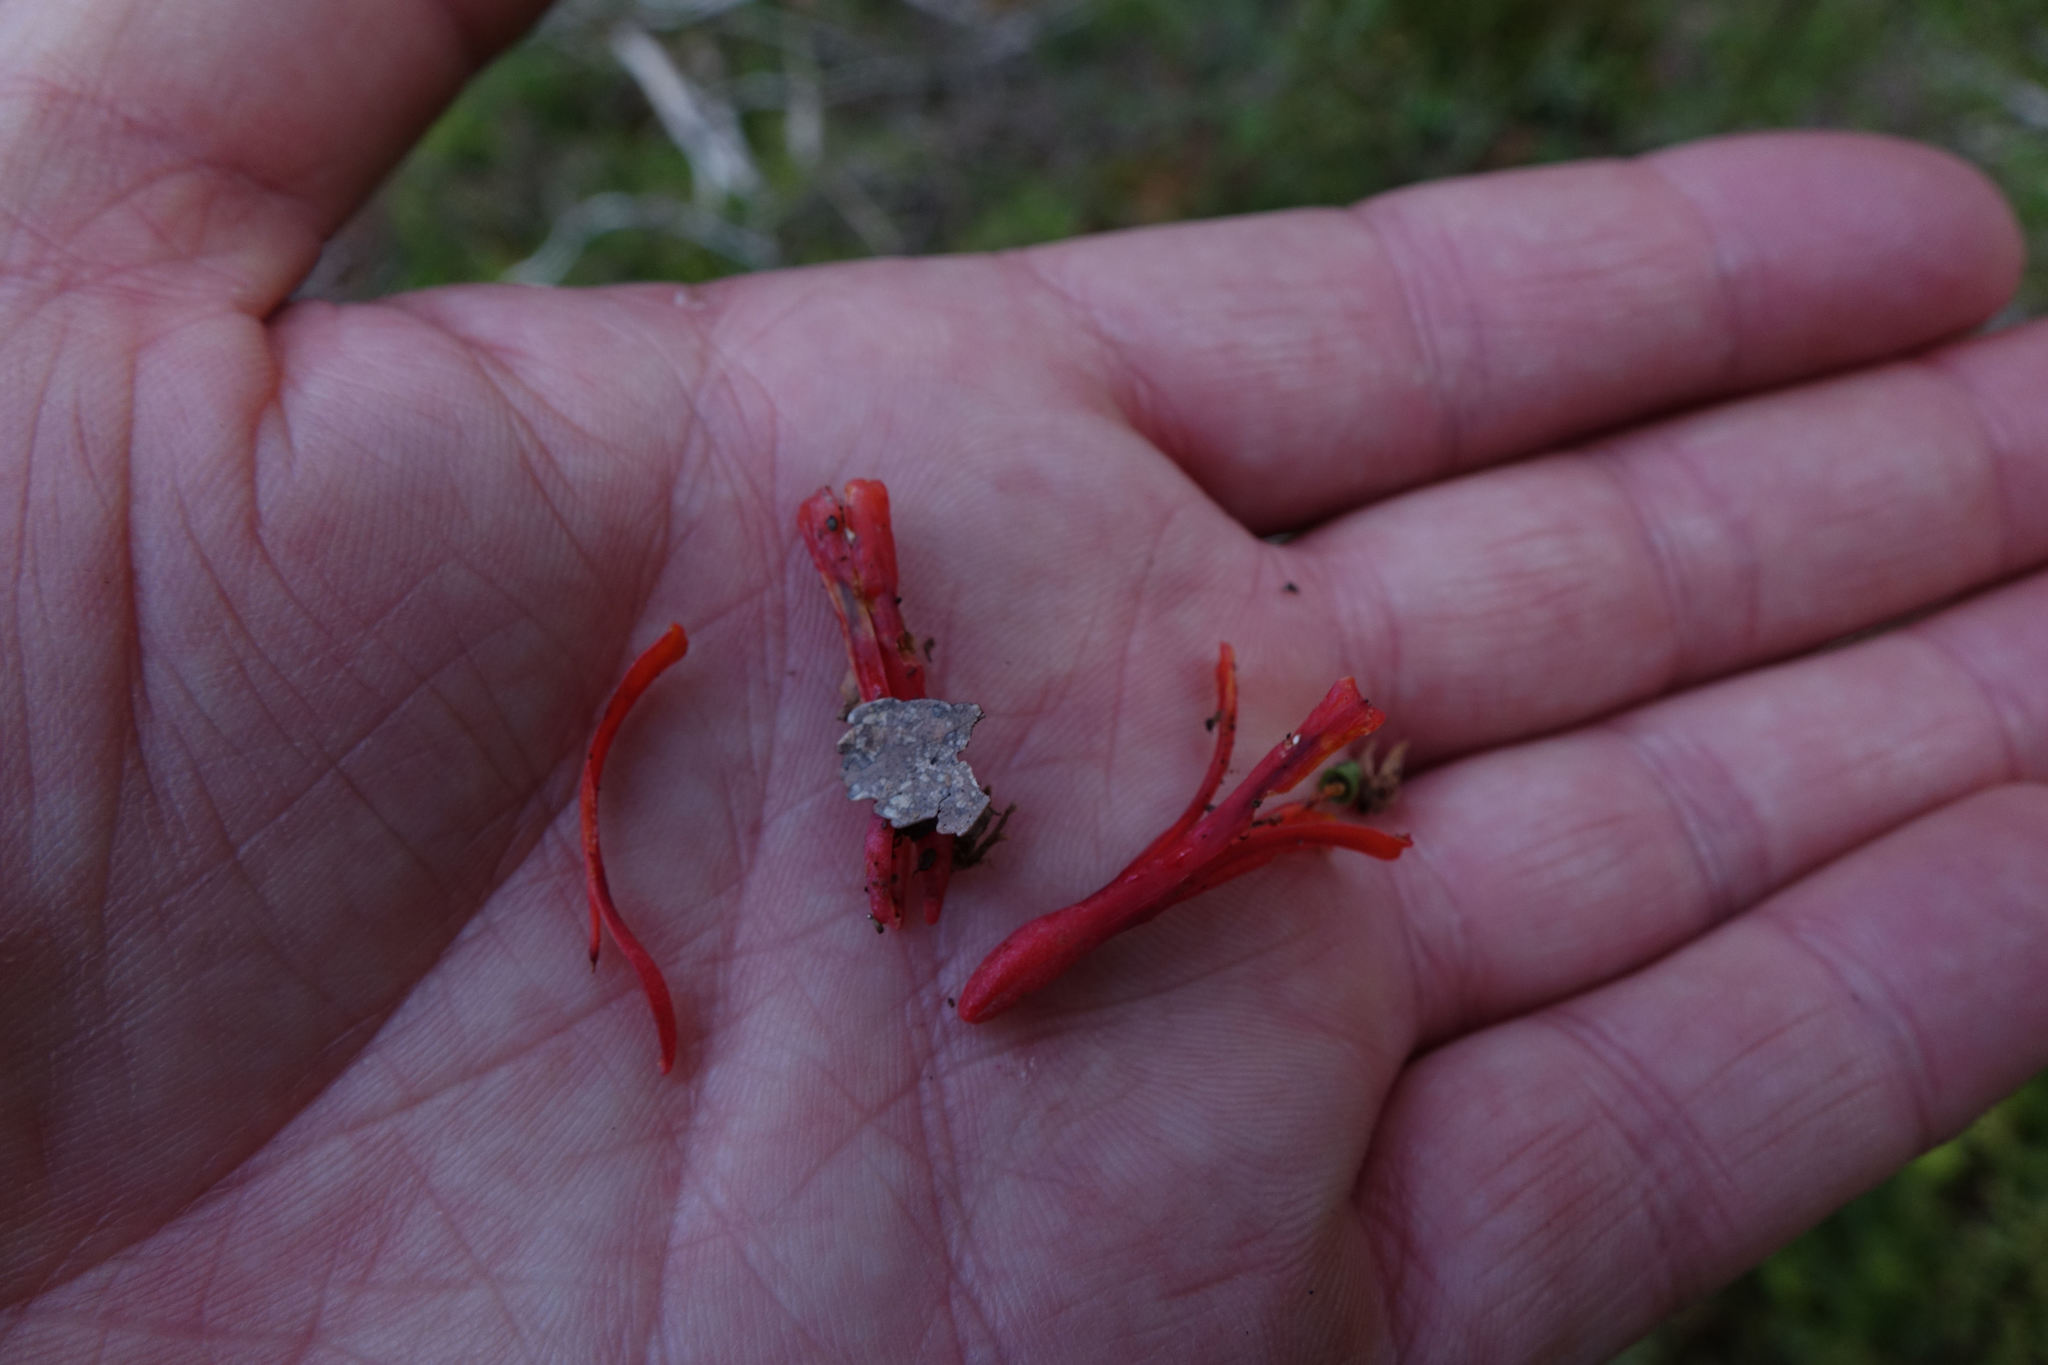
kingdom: Plantae
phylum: Tracheophyta
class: Magnoliopsida
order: Santalales
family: Loranthaceae
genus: Peraxilla
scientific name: Peraxilla colensoi
